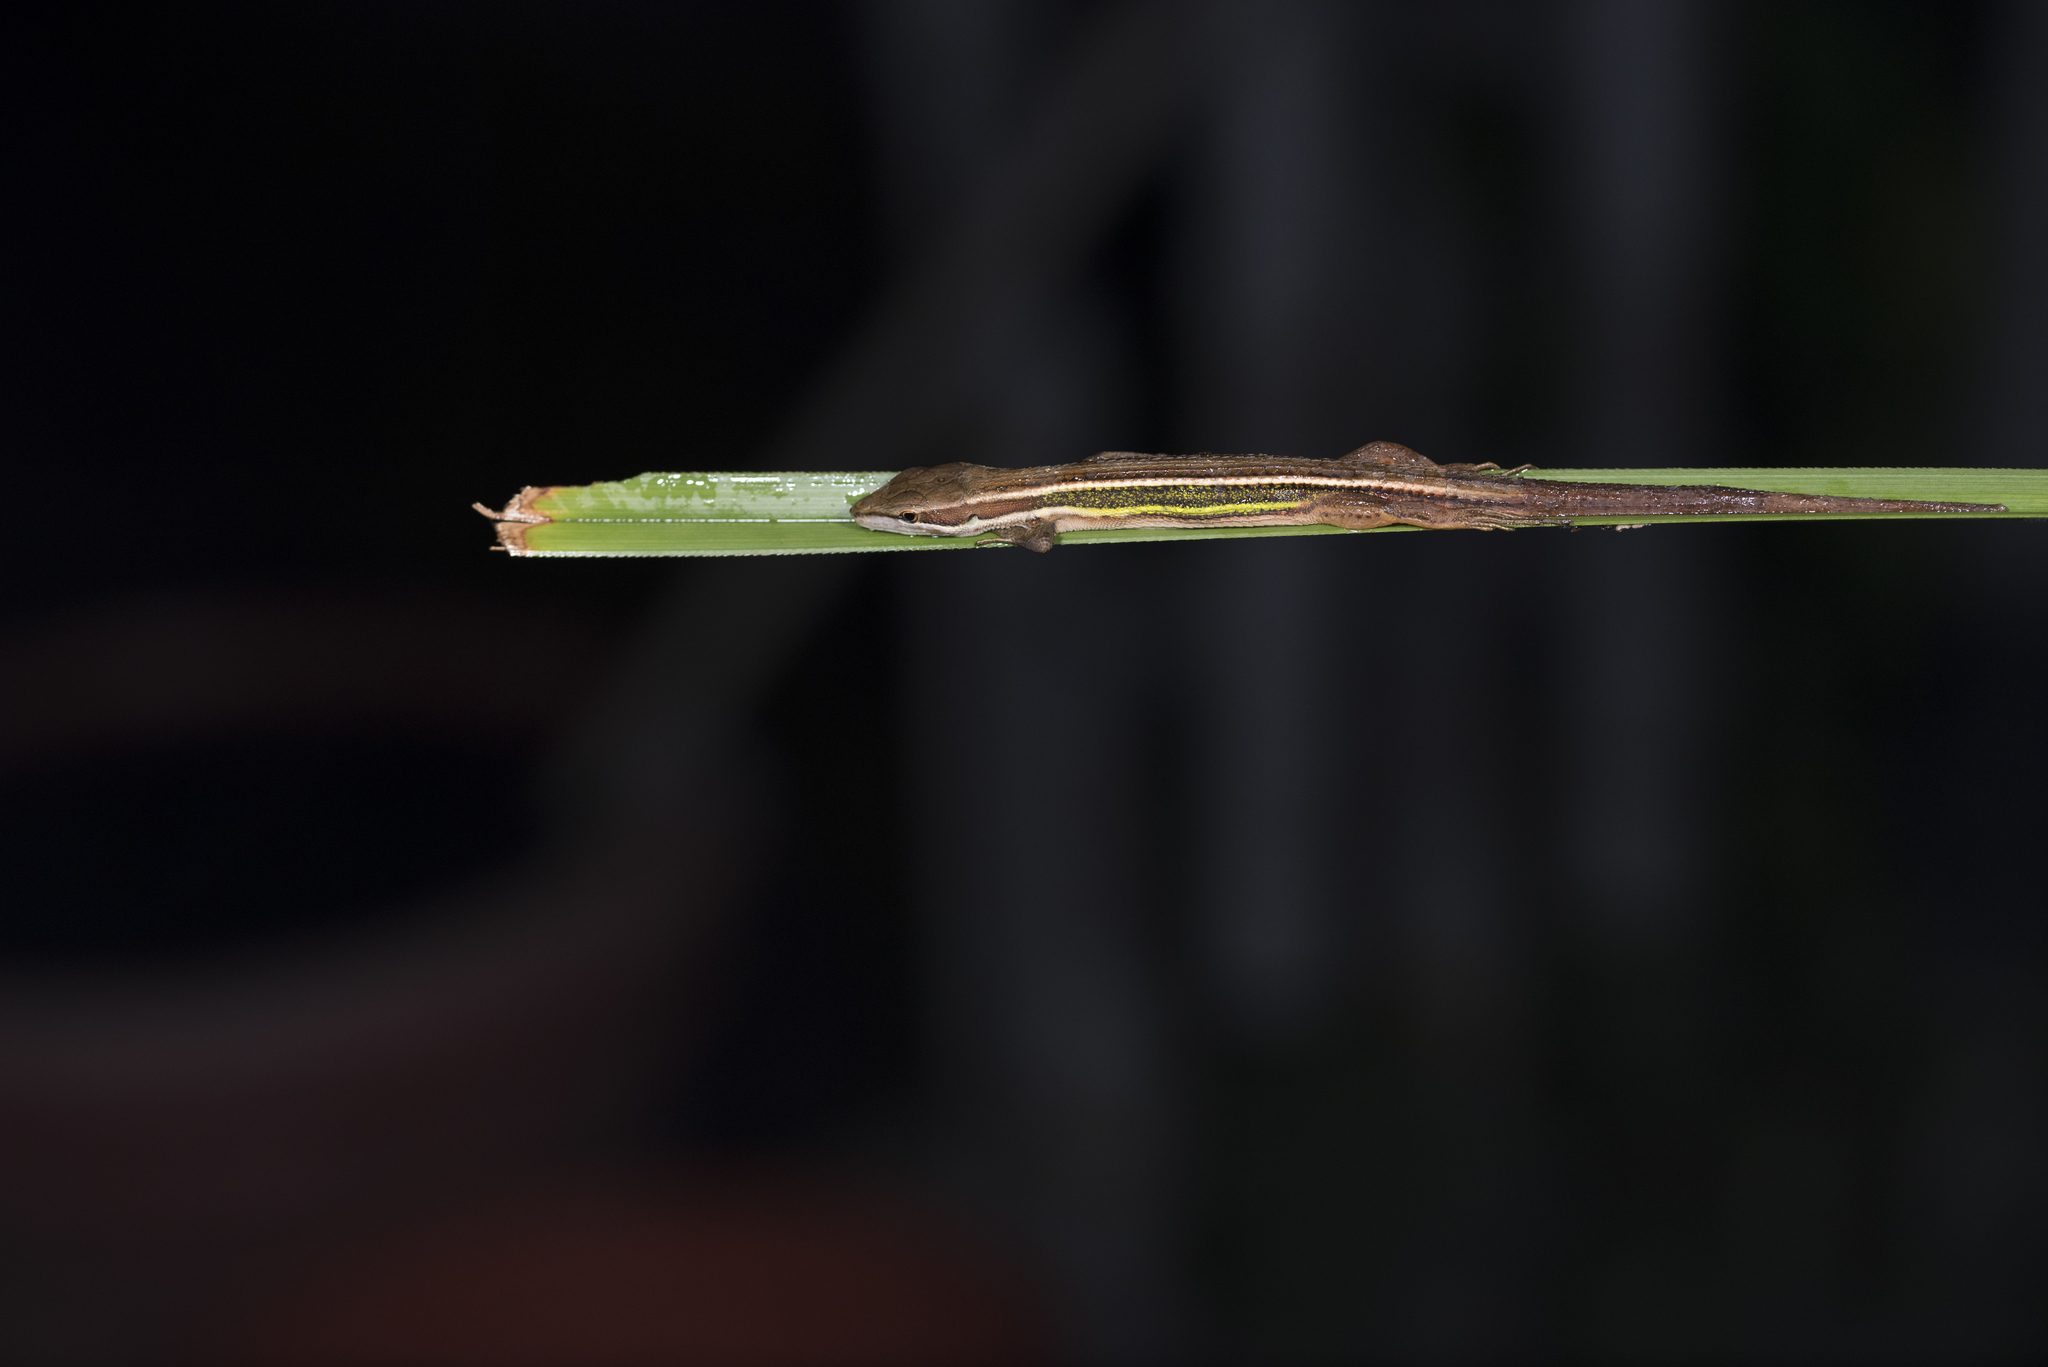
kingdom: Animalia
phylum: Chordata
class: Squamata
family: Lacertidae
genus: Takydromus
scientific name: Takydromus viridipunctatus
